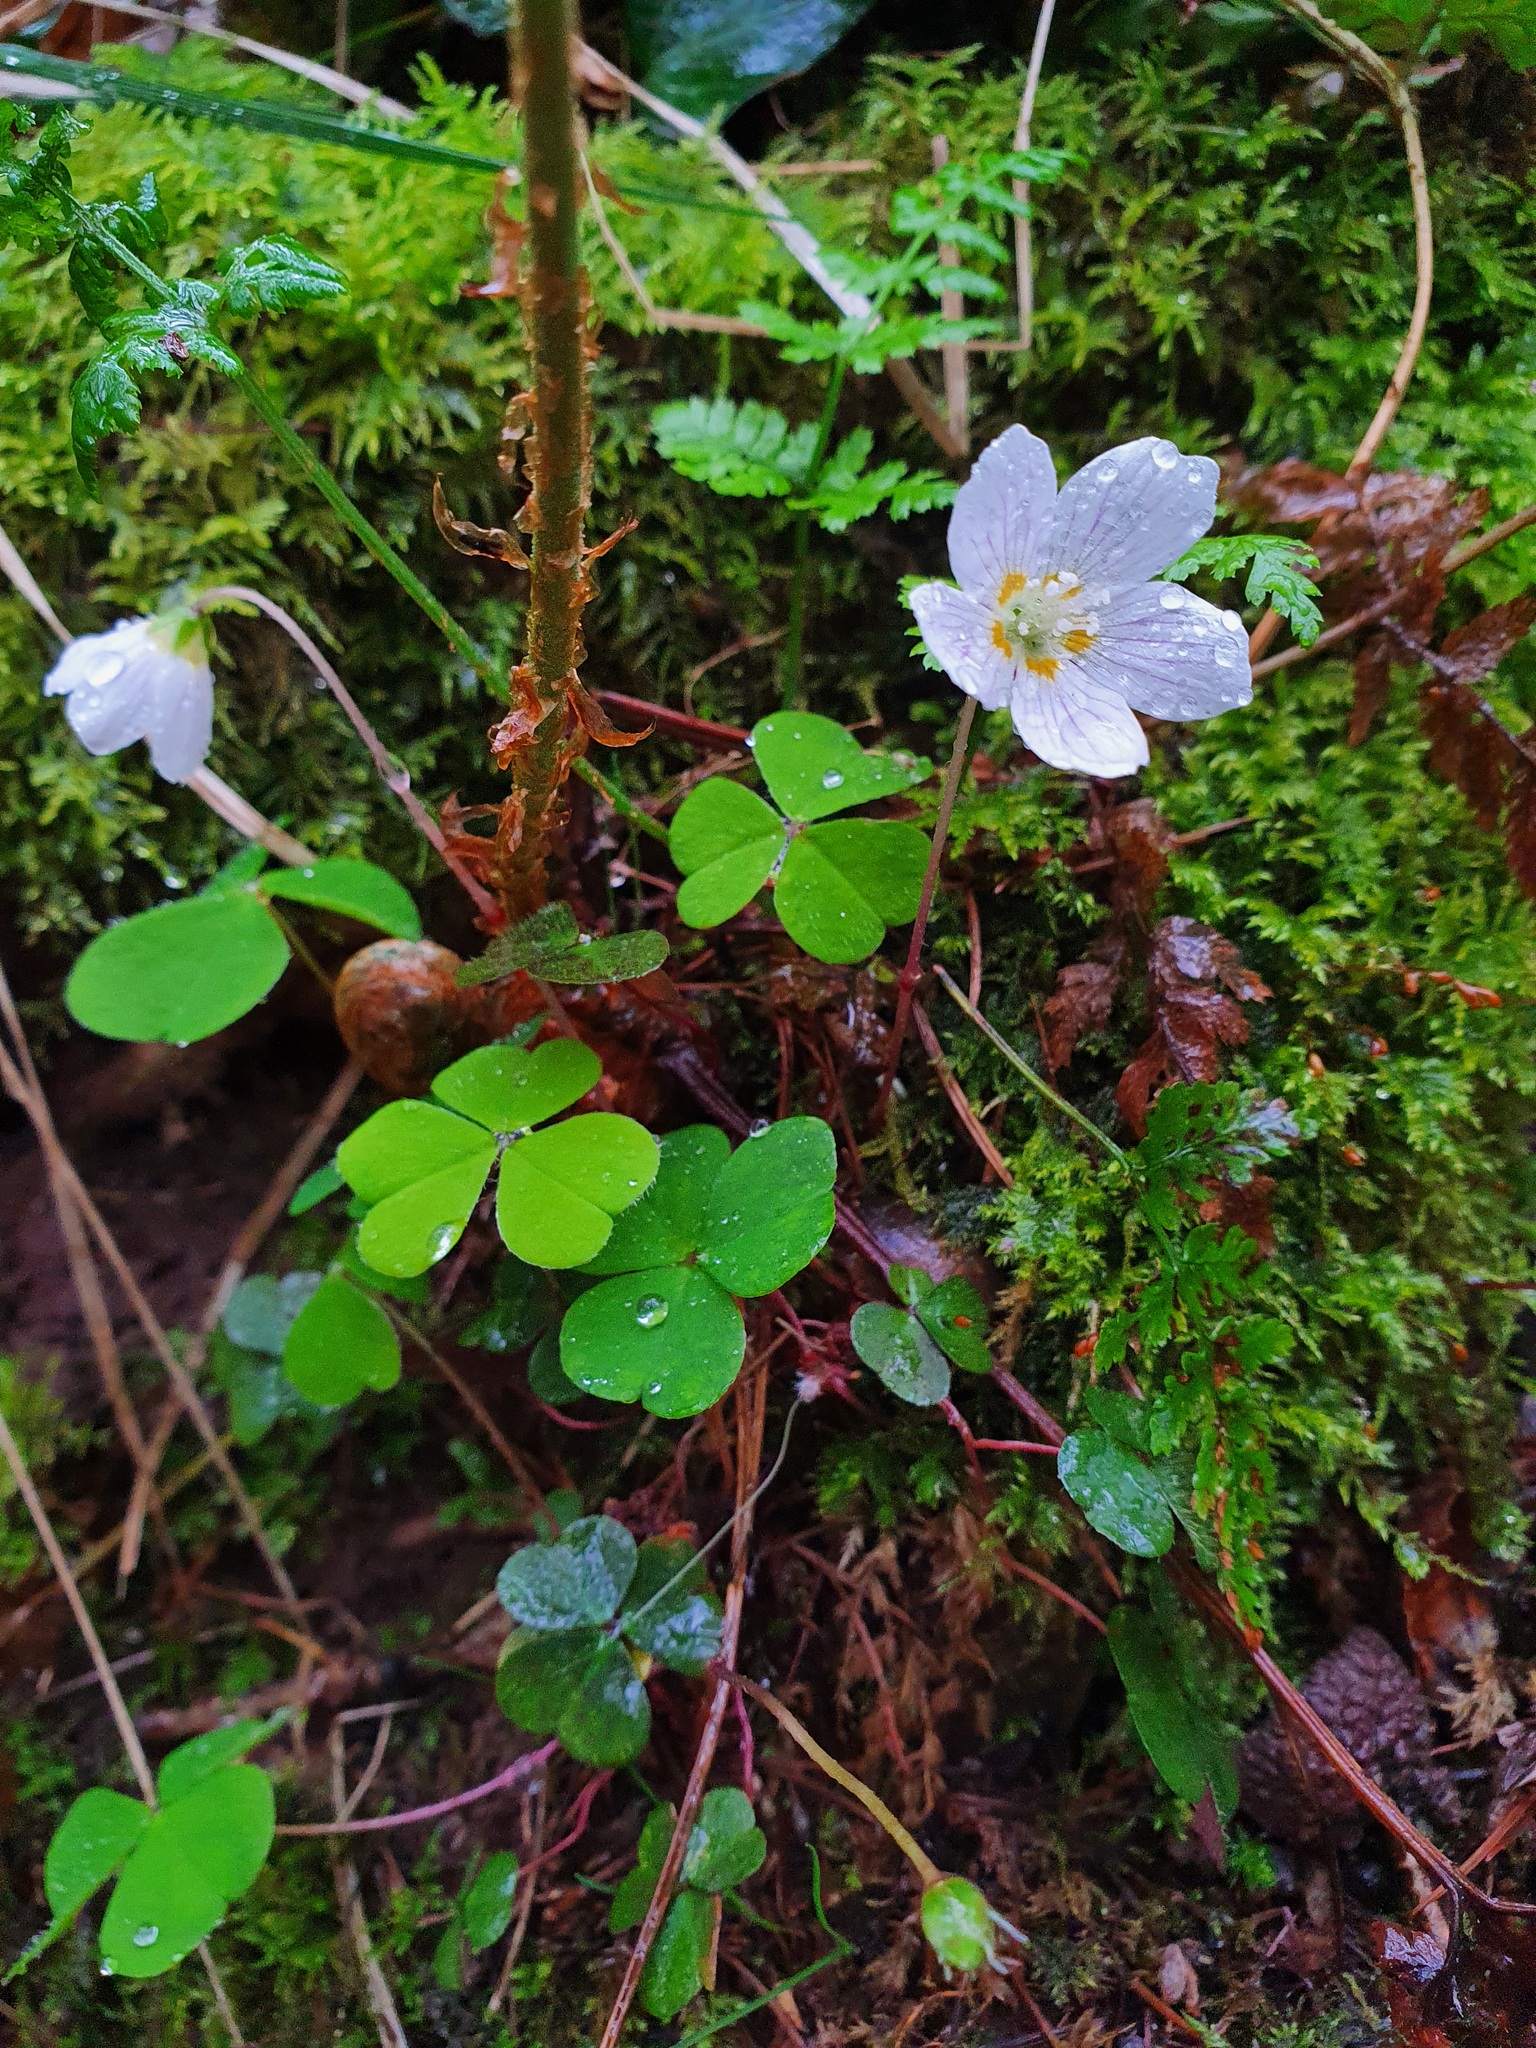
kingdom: Plantae
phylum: Tracheophyta
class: Magnoliopsida
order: Oxalidales
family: Oxalidaceae
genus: Oxalis
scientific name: Oxalis acetosella
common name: Wood-sorrel
